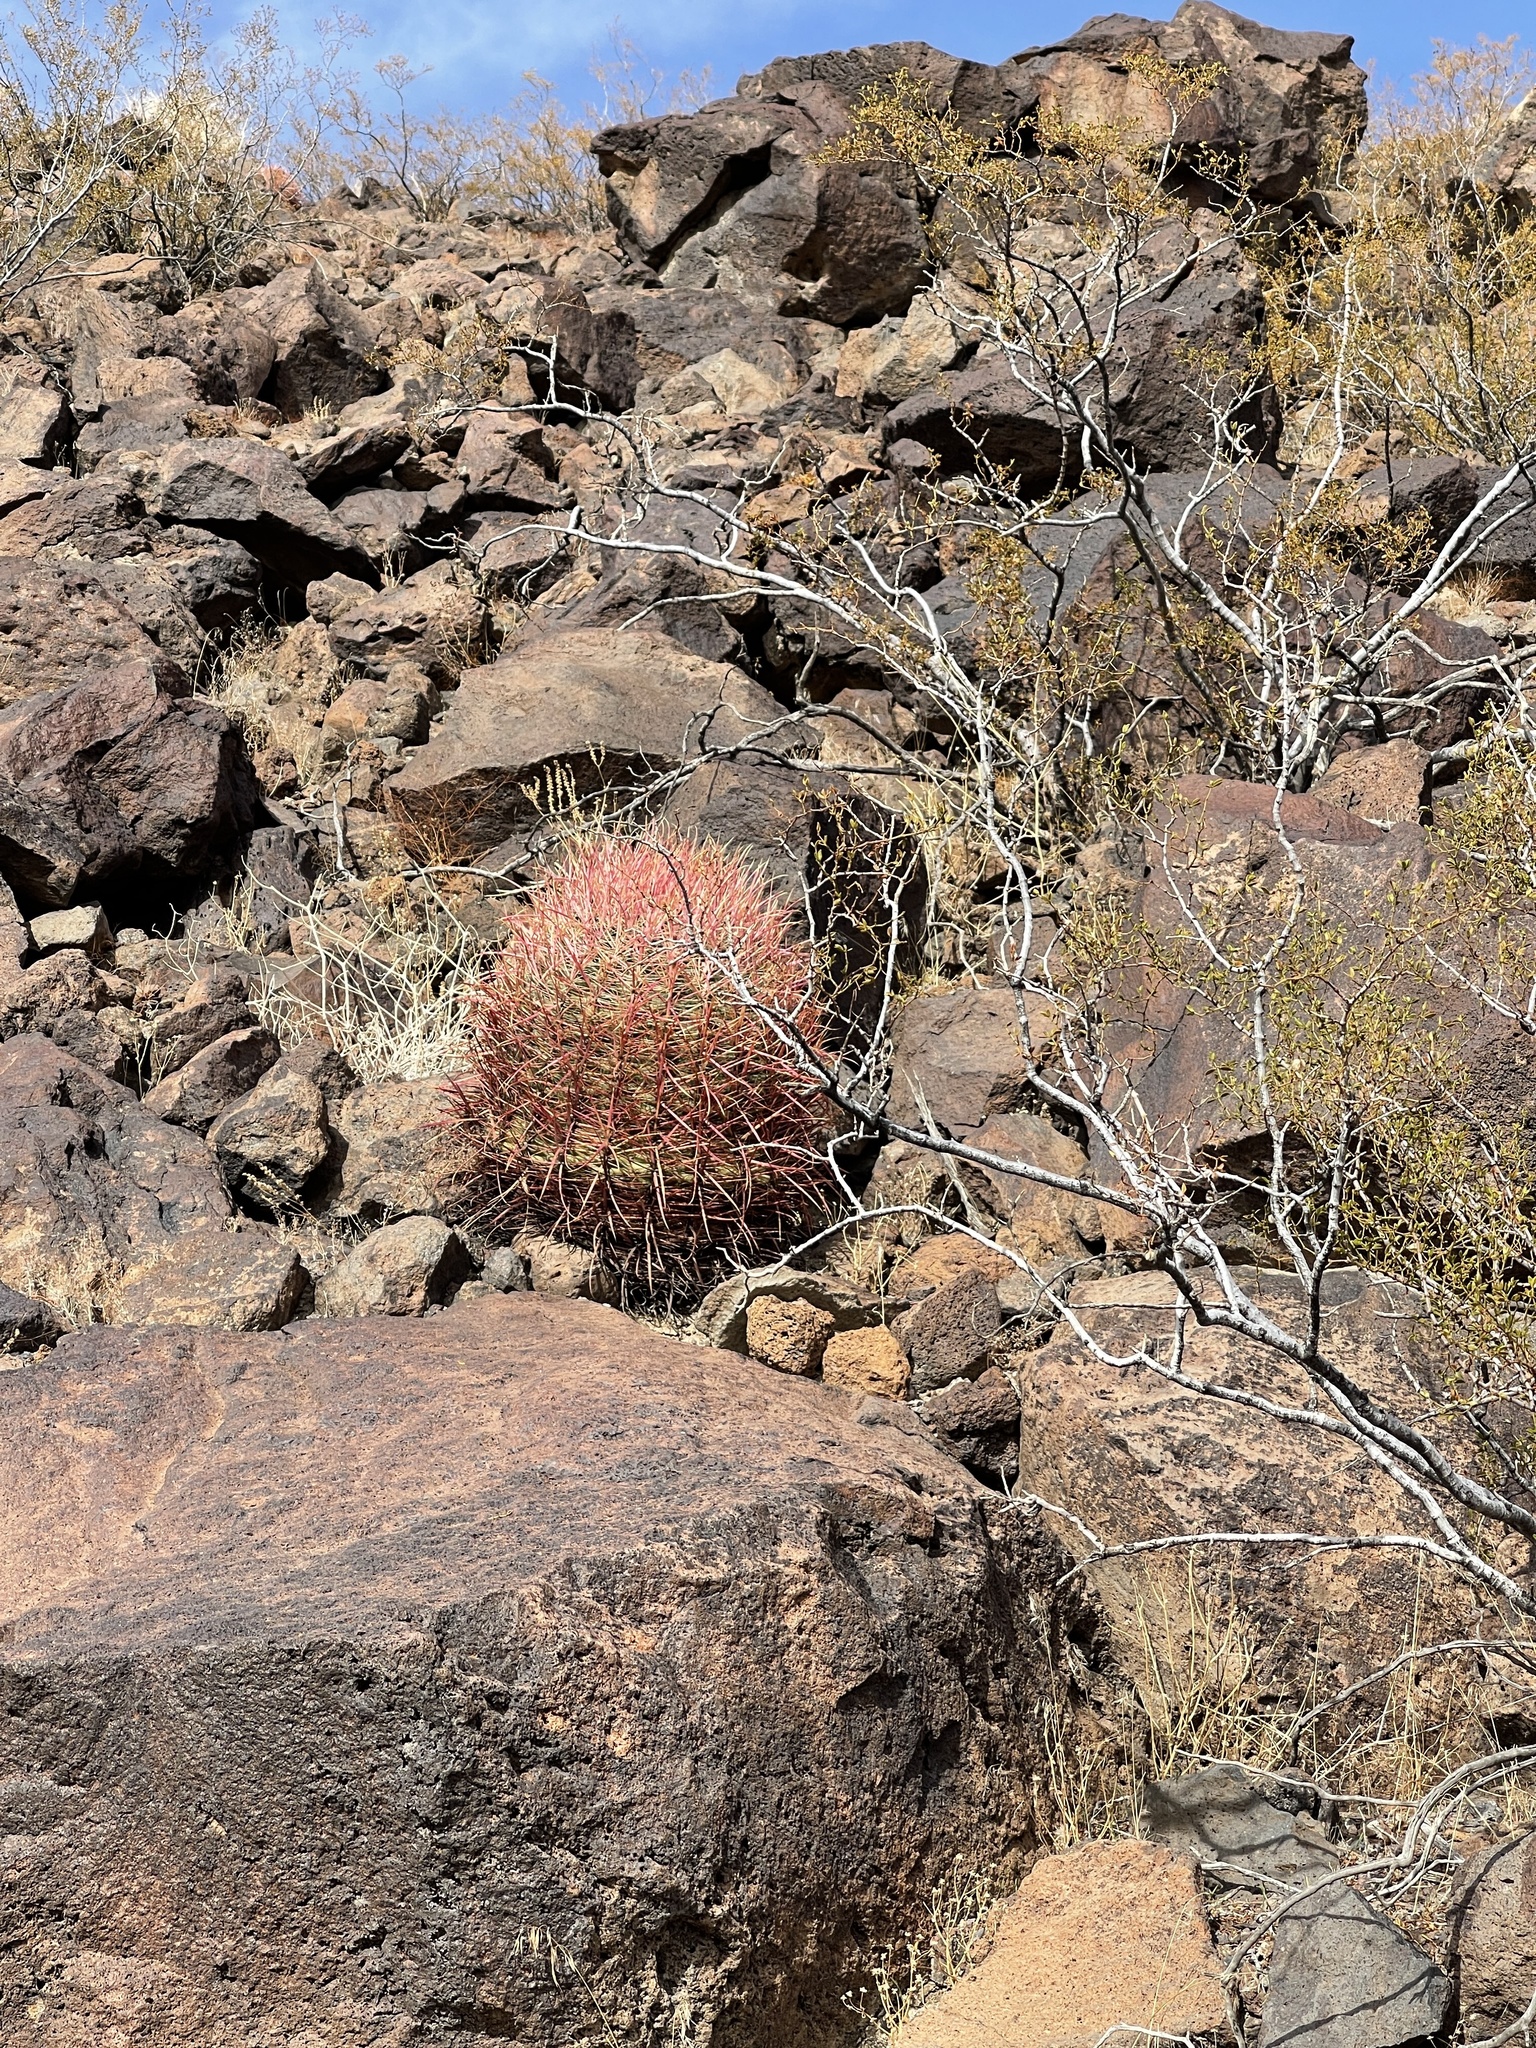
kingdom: Plantae
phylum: Tracheophyta
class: Magnoliopsida
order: Caryophyllales
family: Cactaceae
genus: Ferocactus
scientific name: Ferocactus cylindraceus
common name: California barrel cactus
